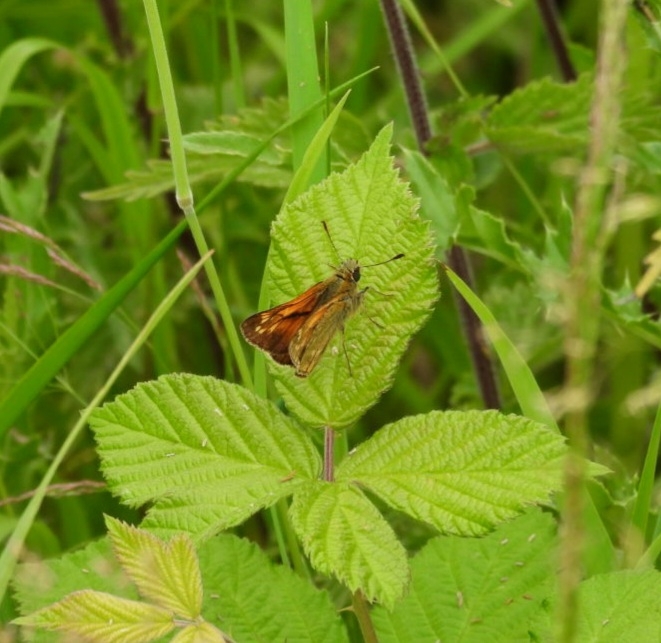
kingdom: Animalia
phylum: Arthropoda
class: Insecta
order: Lepidoptera
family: Hesperiidae
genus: Ochlodes
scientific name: Ochlodes venata
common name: Large skipper
